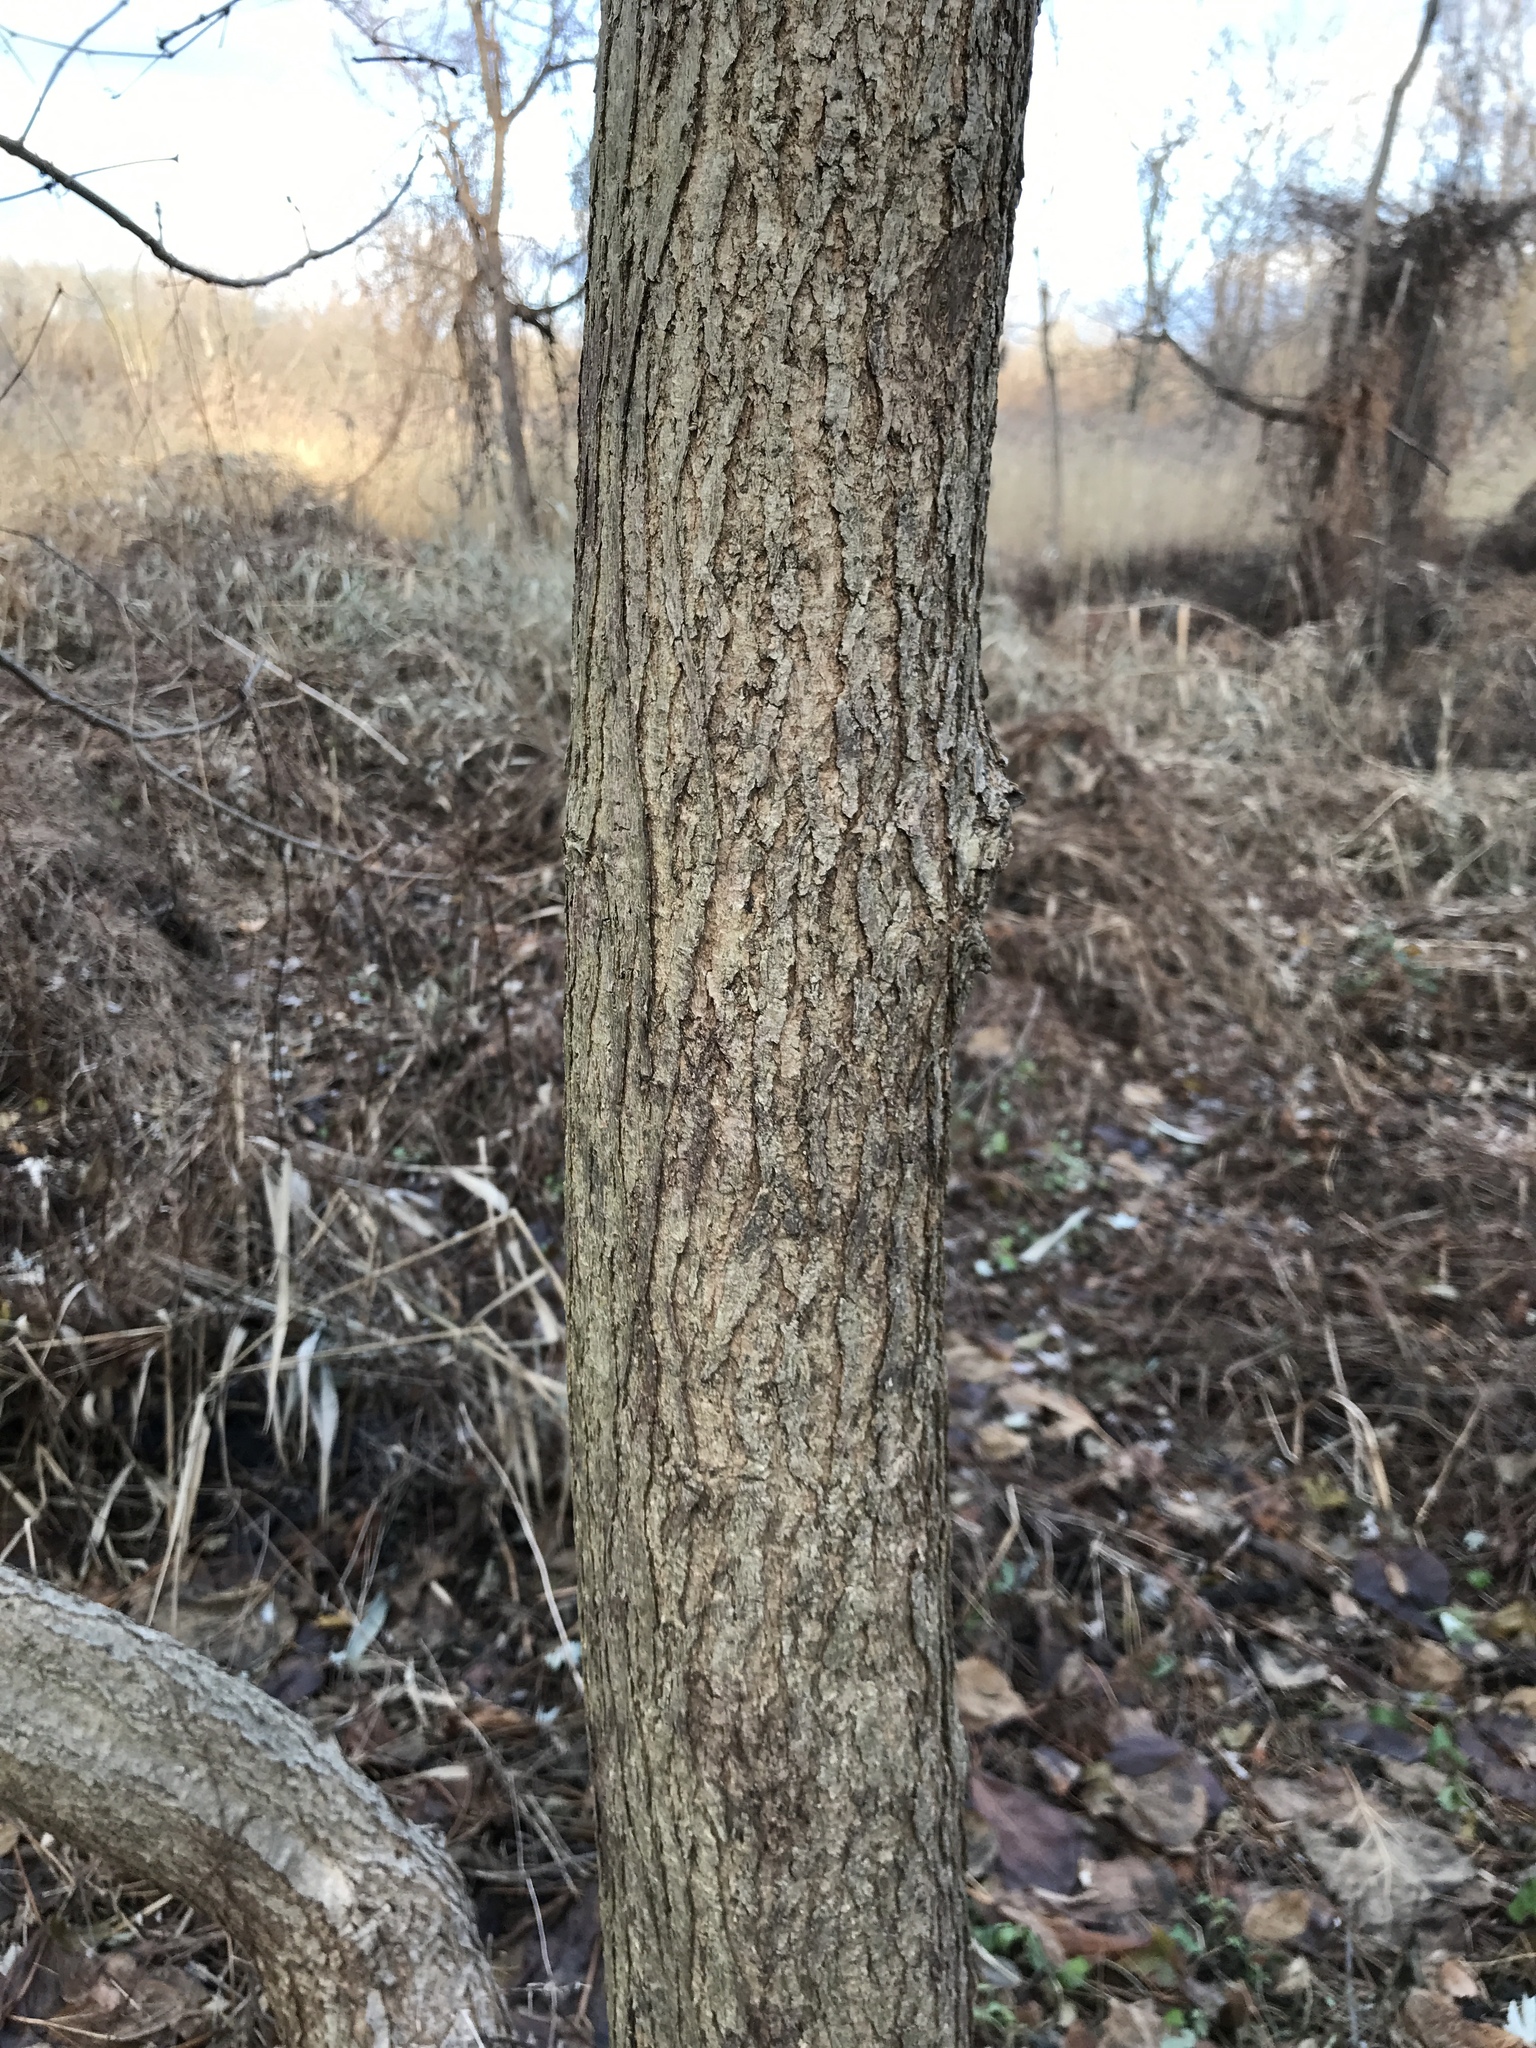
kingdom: Plantae
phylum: Tracheophyta
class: Magnoliopsida
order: Lamiales
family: Bignoniaceae
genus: Catalpa
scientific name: Catalpa speciosa
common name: Northern catalpa
